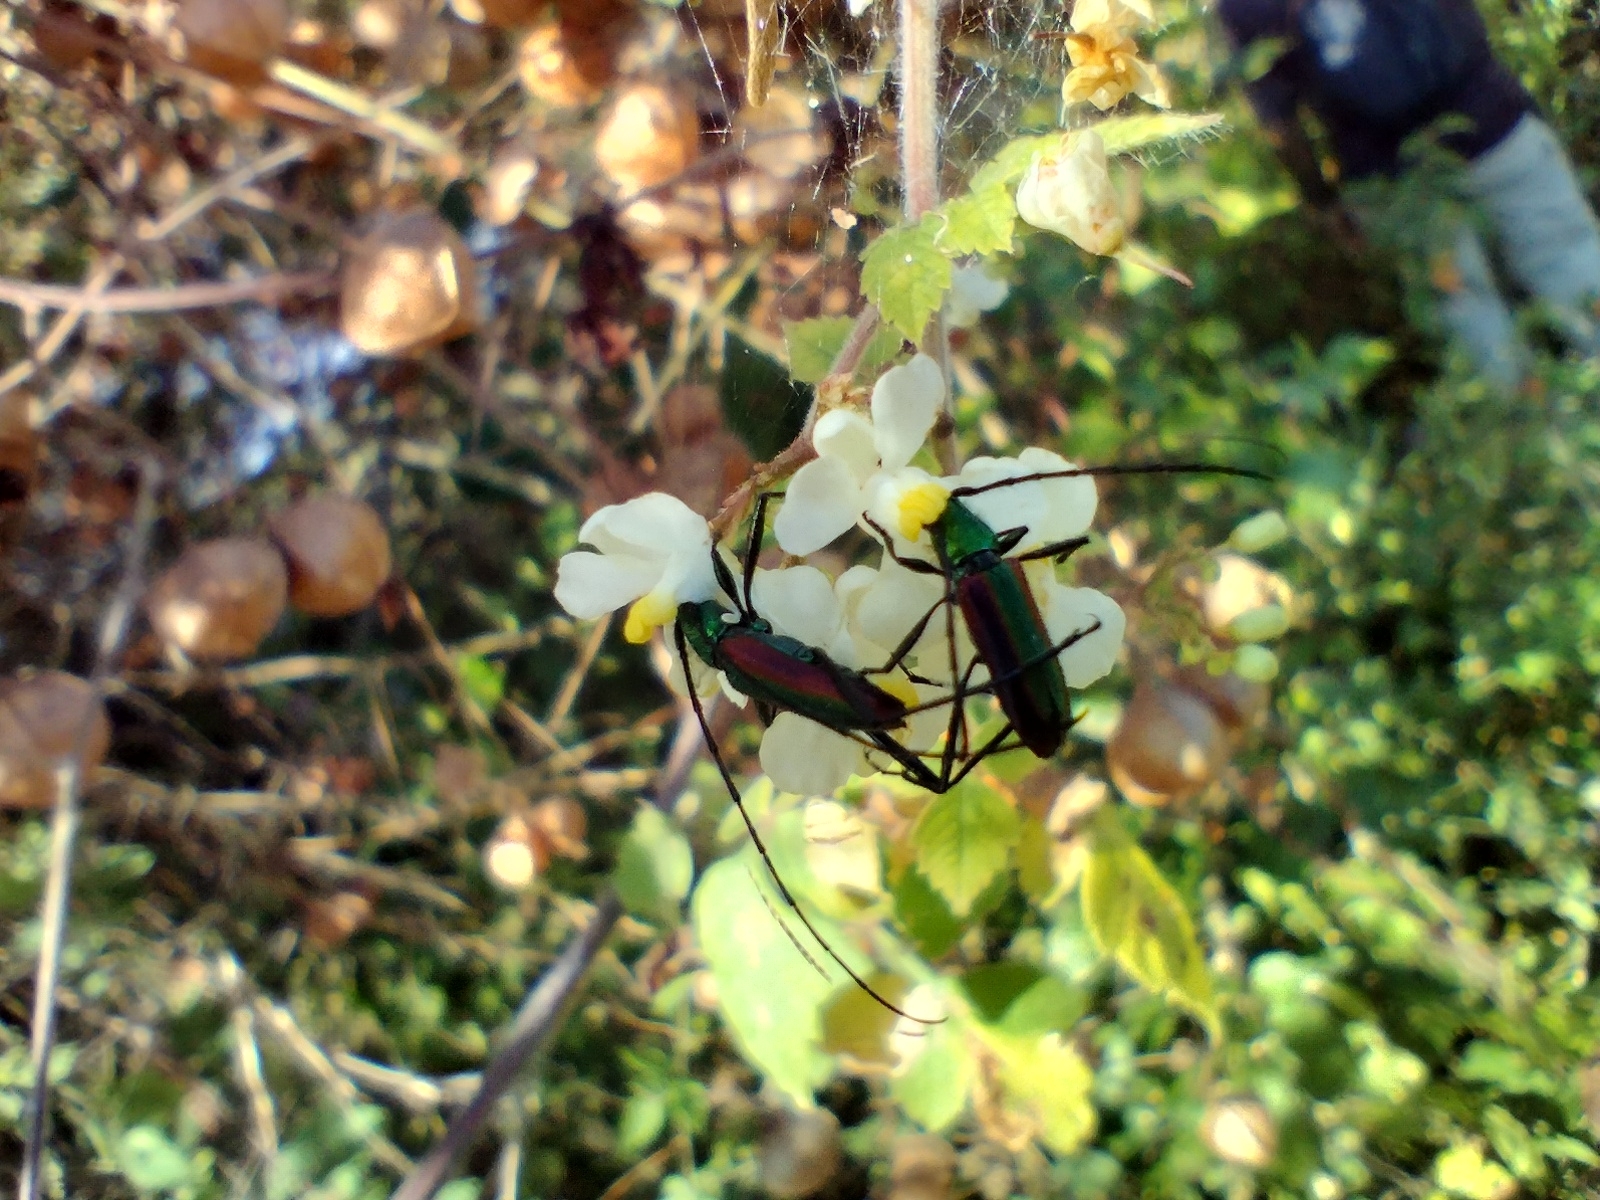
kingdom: Animalia
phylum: Arthropoda
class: Insecta
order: Coleoptera
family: Cerambycidae
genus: Chrysoprasis
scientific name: Chrysoprasis aurigena
